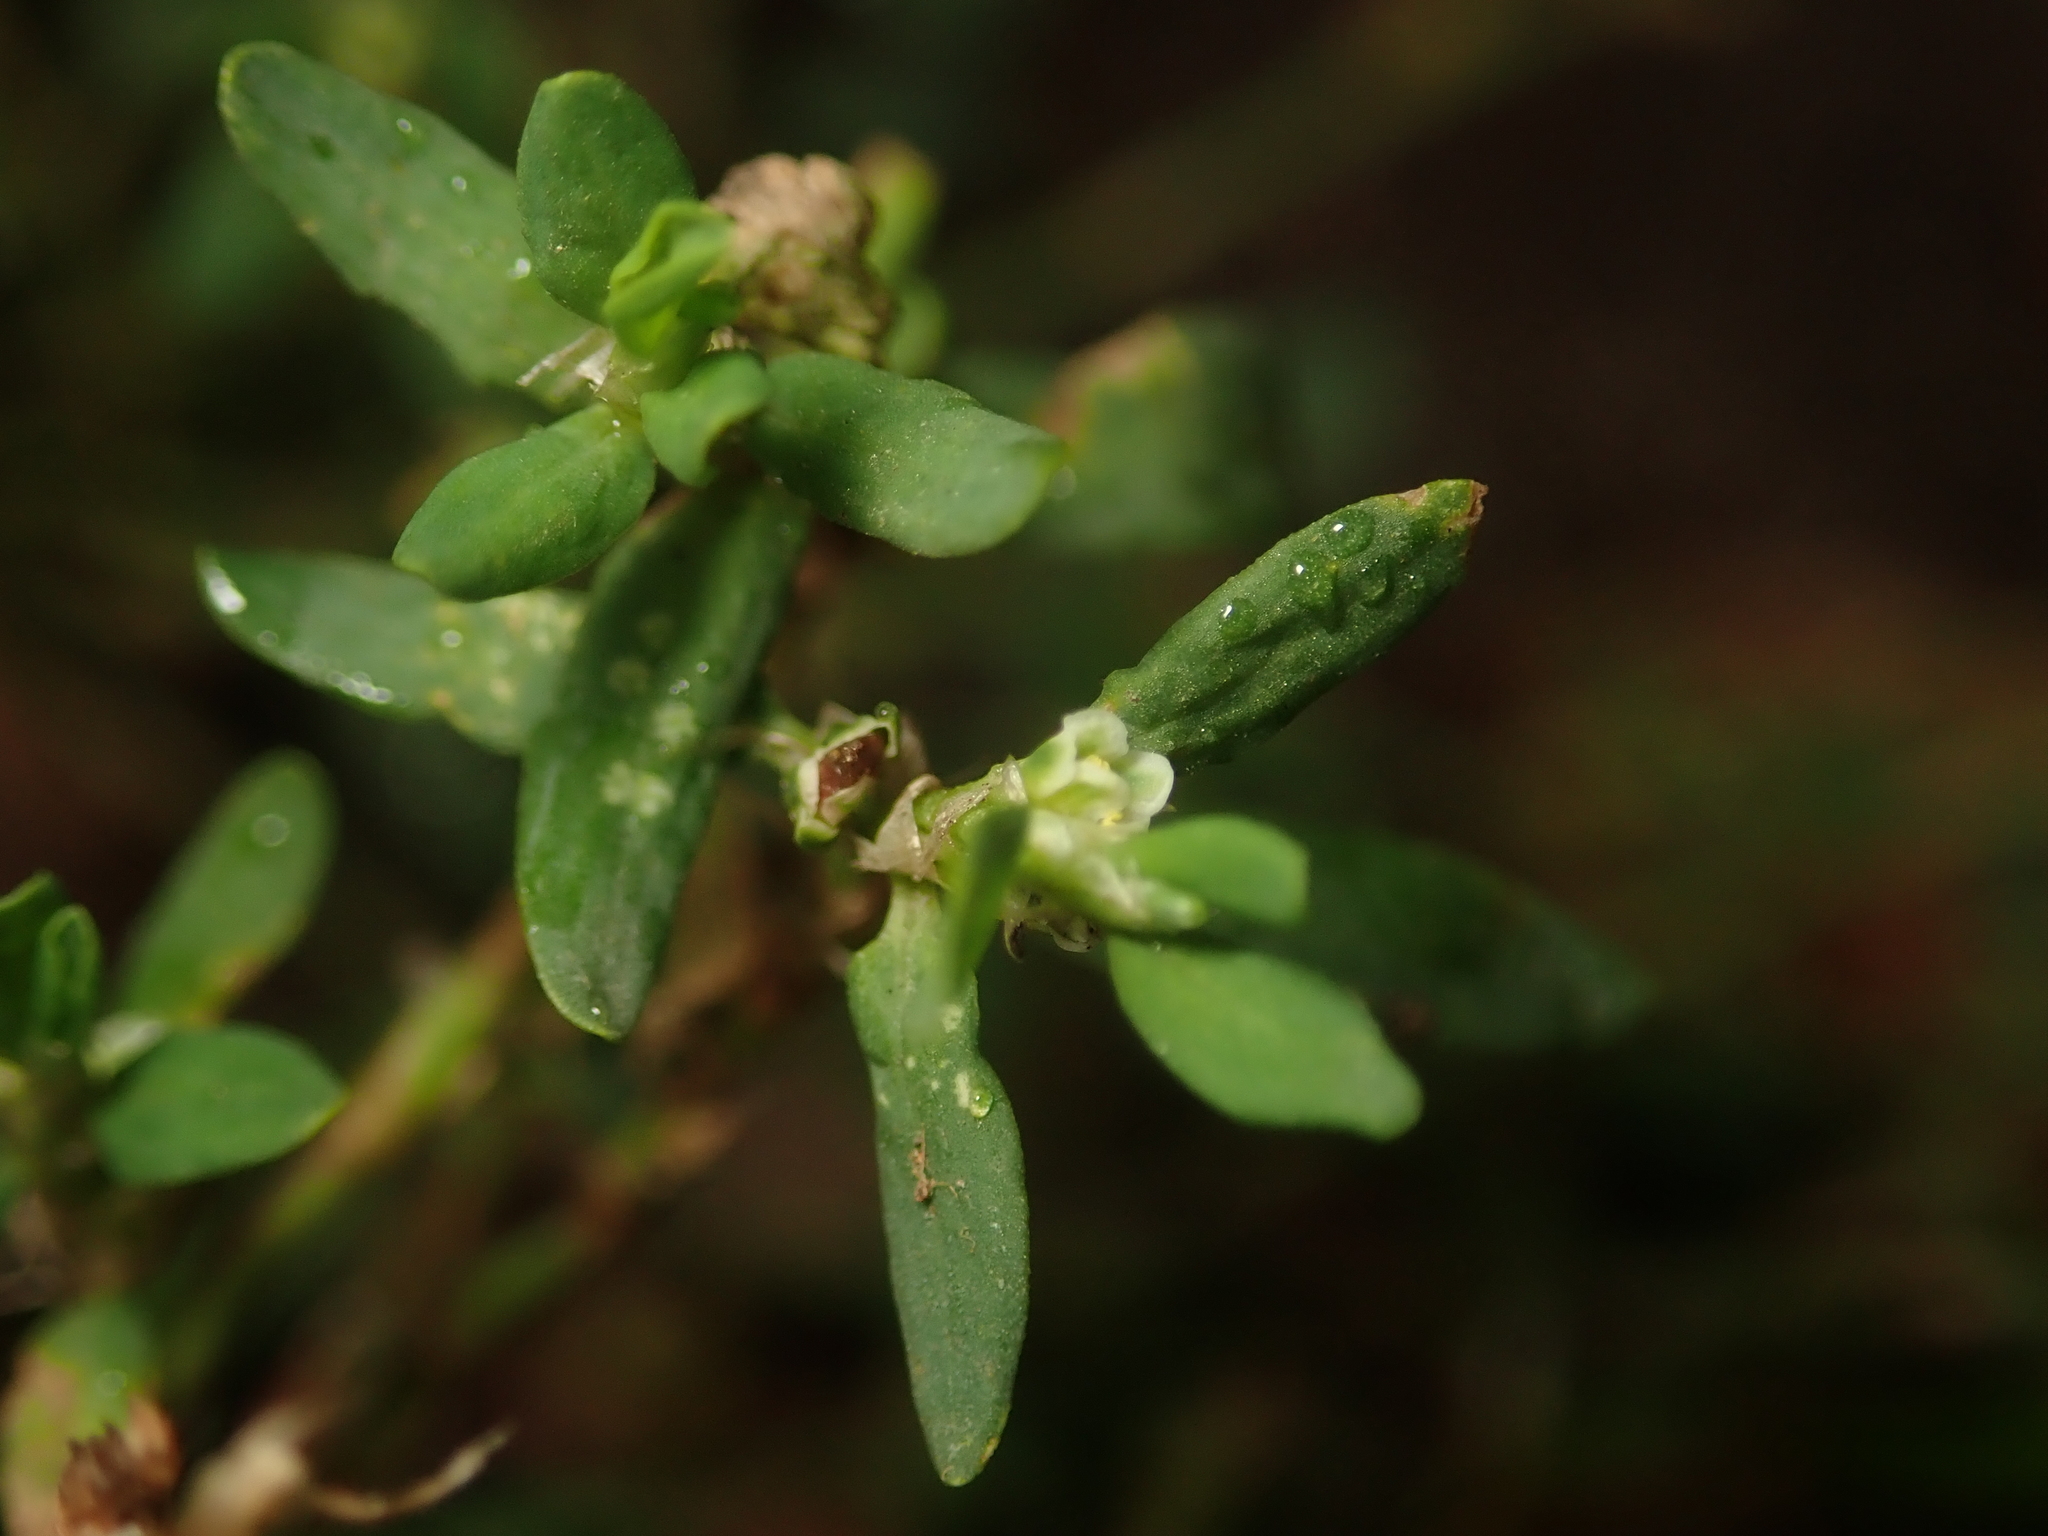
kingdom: Plantae
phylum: Tracheophyta
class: Magnoliopsida
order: Caryophyllales
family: Polygonaceae
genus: Polygonum
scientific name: Polygonum aviculare
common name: Prostrate knotweed
